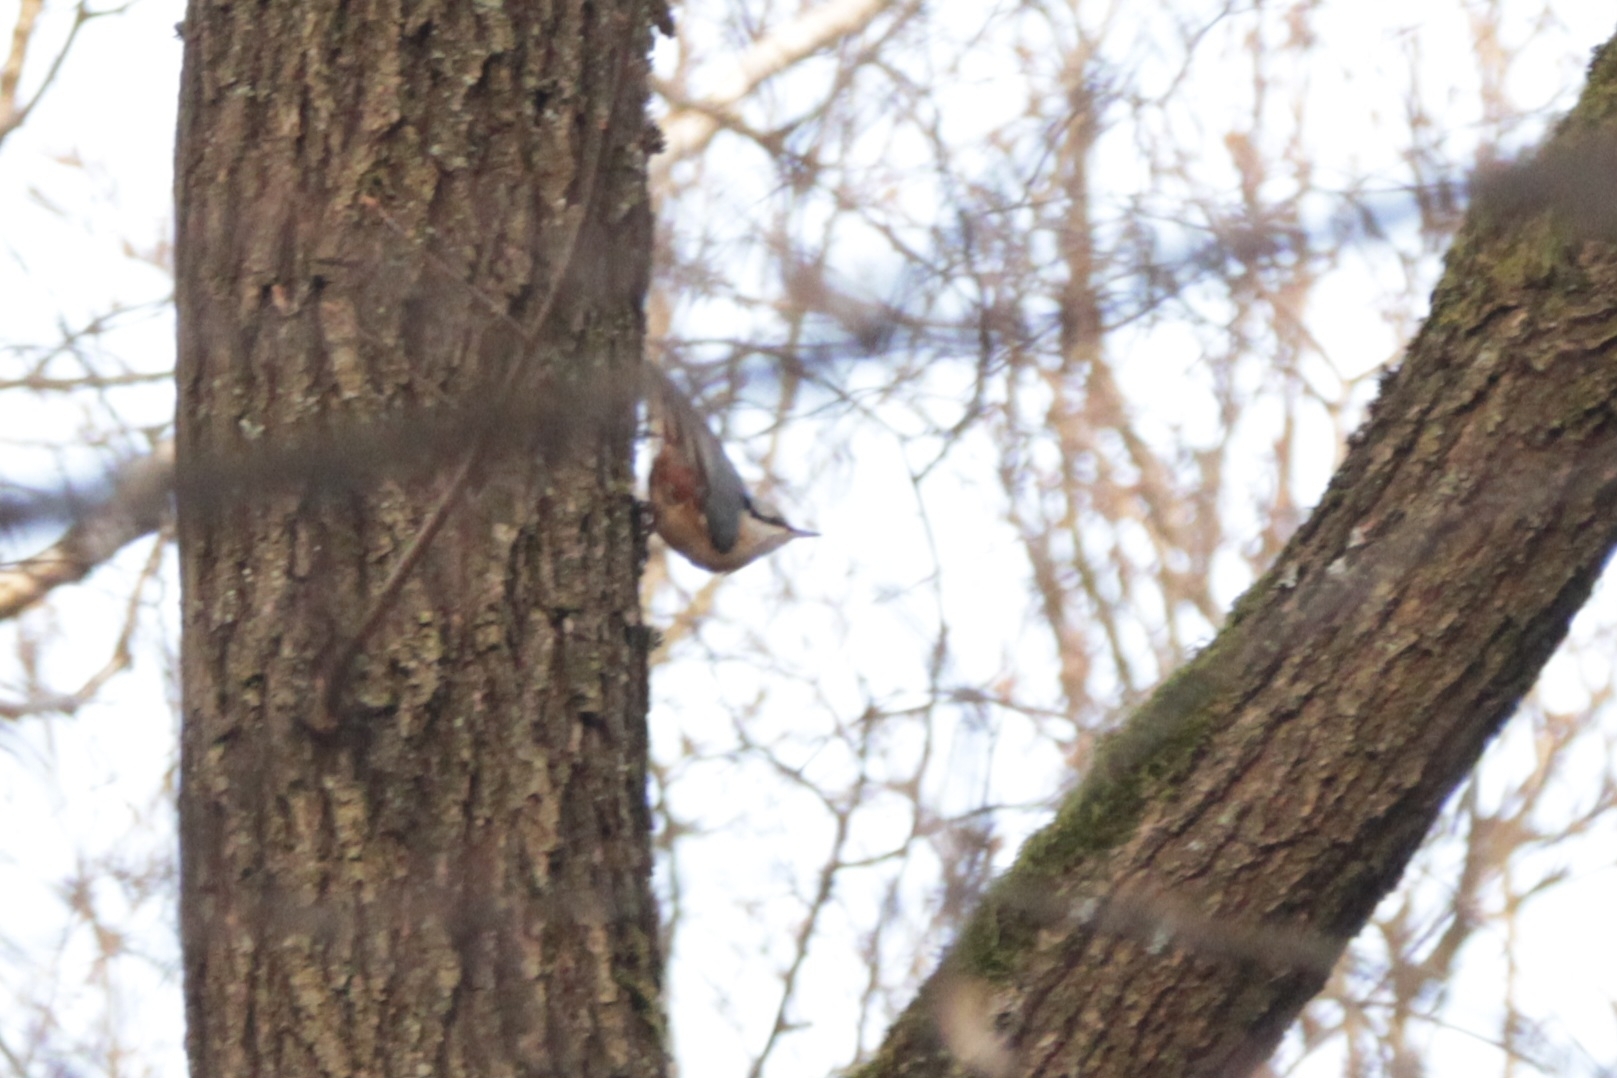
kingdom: Animalia
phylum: Chordata
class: Aves
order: Passeriformes
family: Sittidae
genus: Sitta
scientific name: Sitta europaea
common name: Eurasian nuthatch
